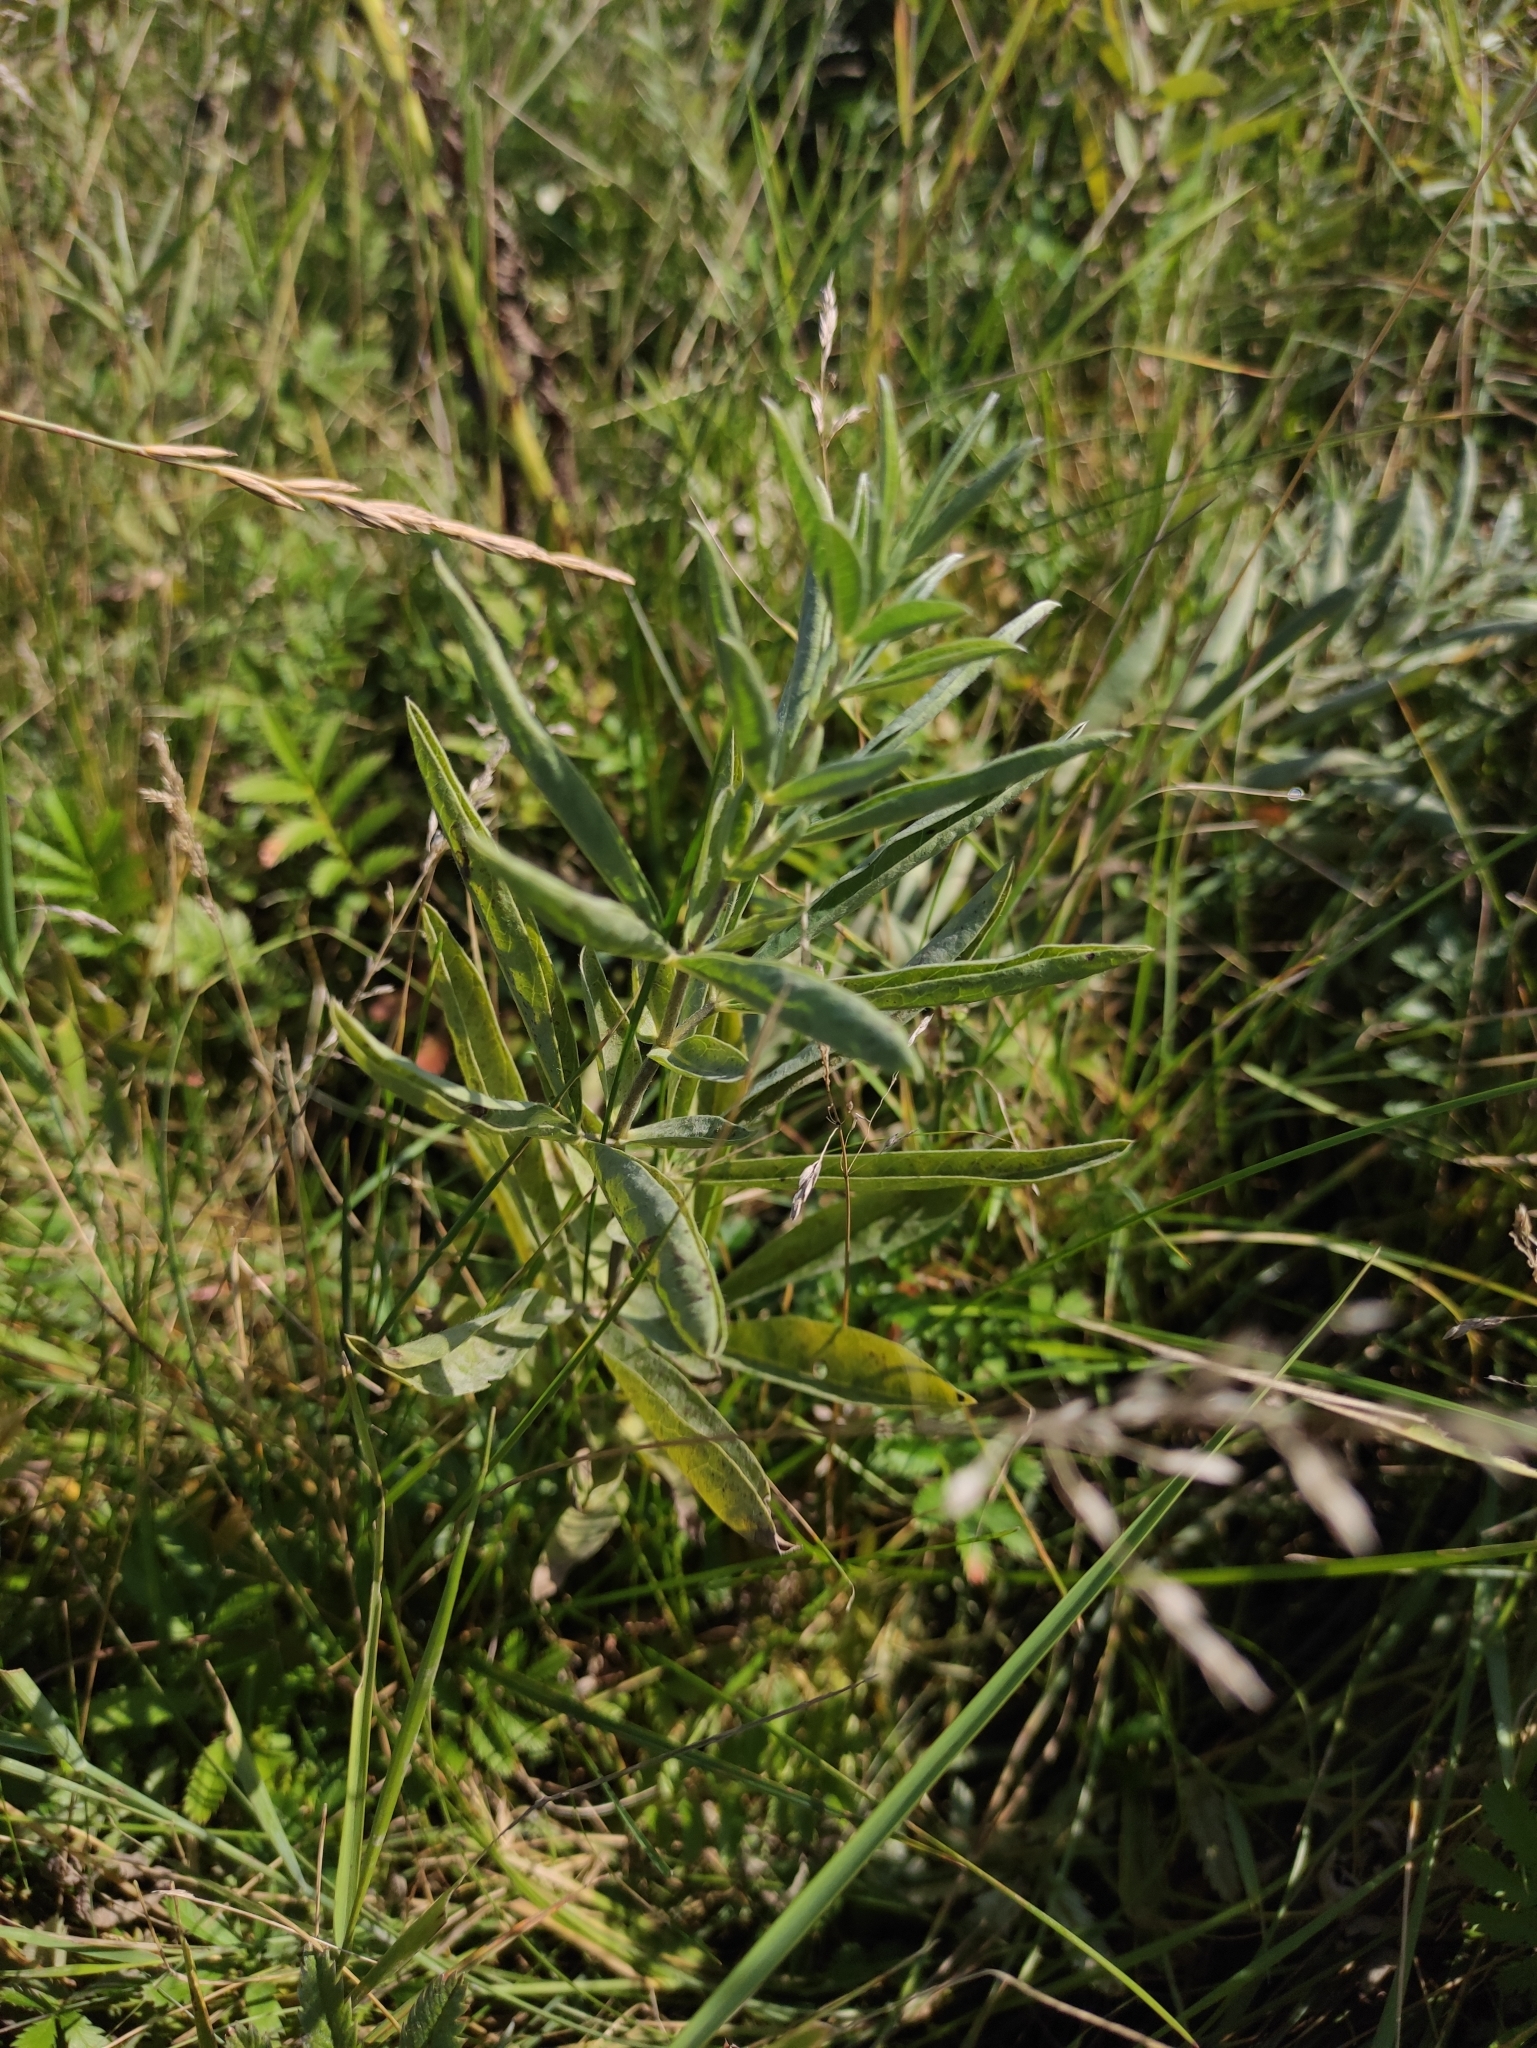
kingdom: Plantae
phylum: Tracheophyta
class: Magnoliopsida
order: Fabales
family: Fabaceae
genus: Thermopsis
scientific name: Thermopsis lanceolata
